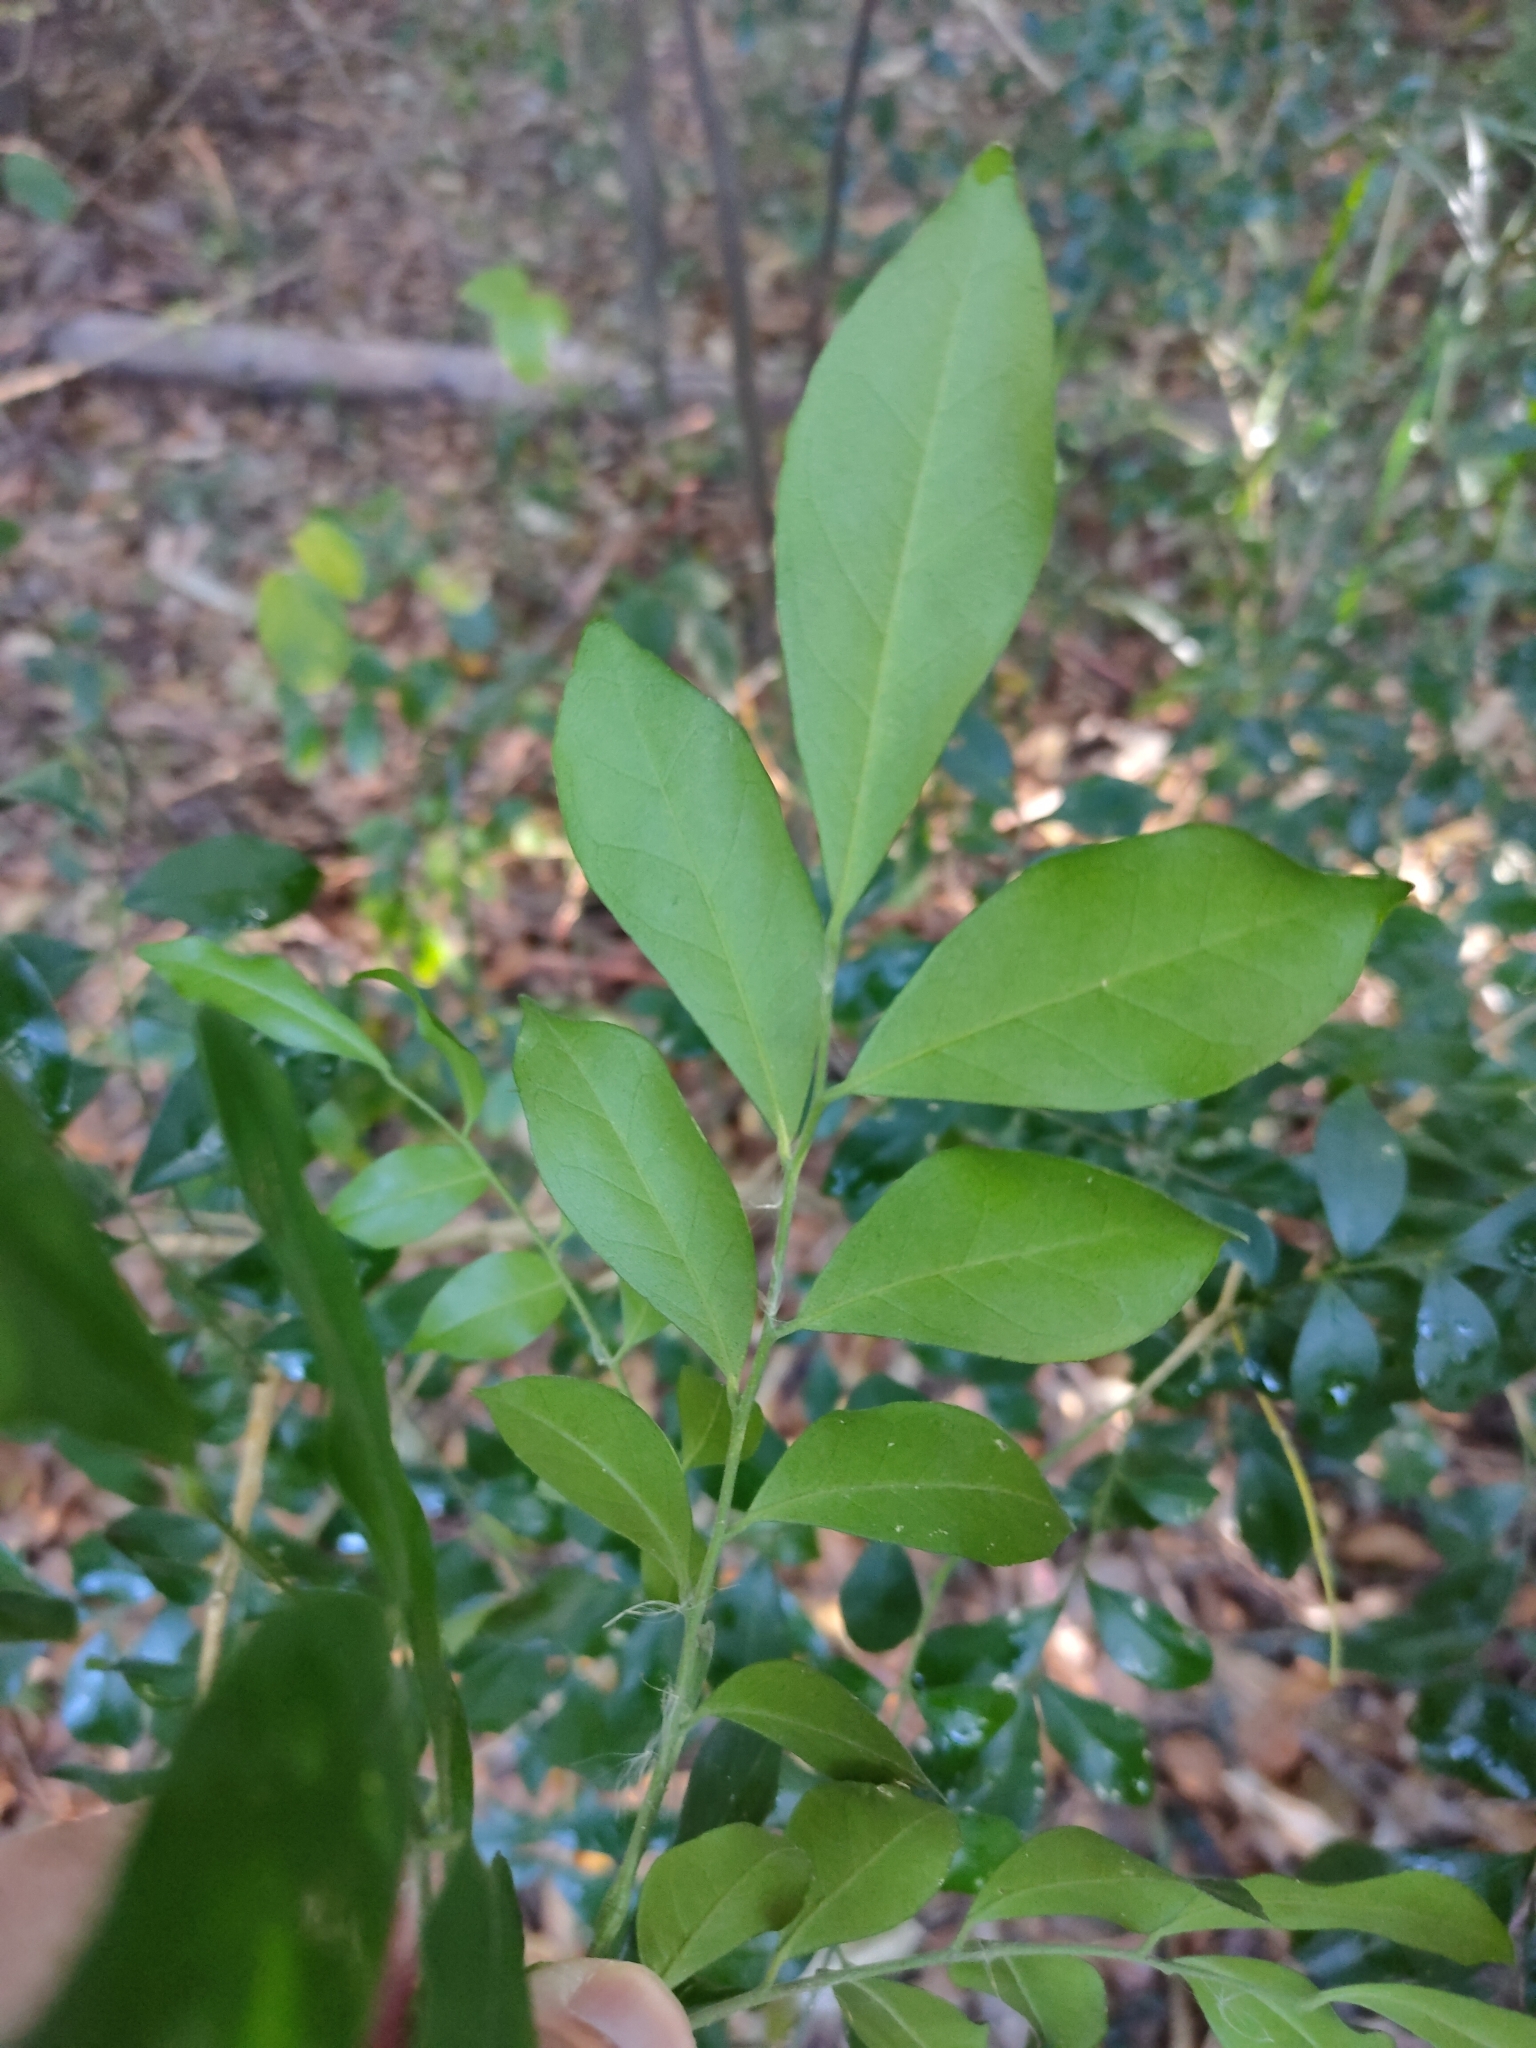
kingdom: Plantae
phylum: Tracheophyta
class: Magnoliopsida
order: Sapindales
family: Rutaceae
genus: Murraya
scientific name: Murraya paniculata
